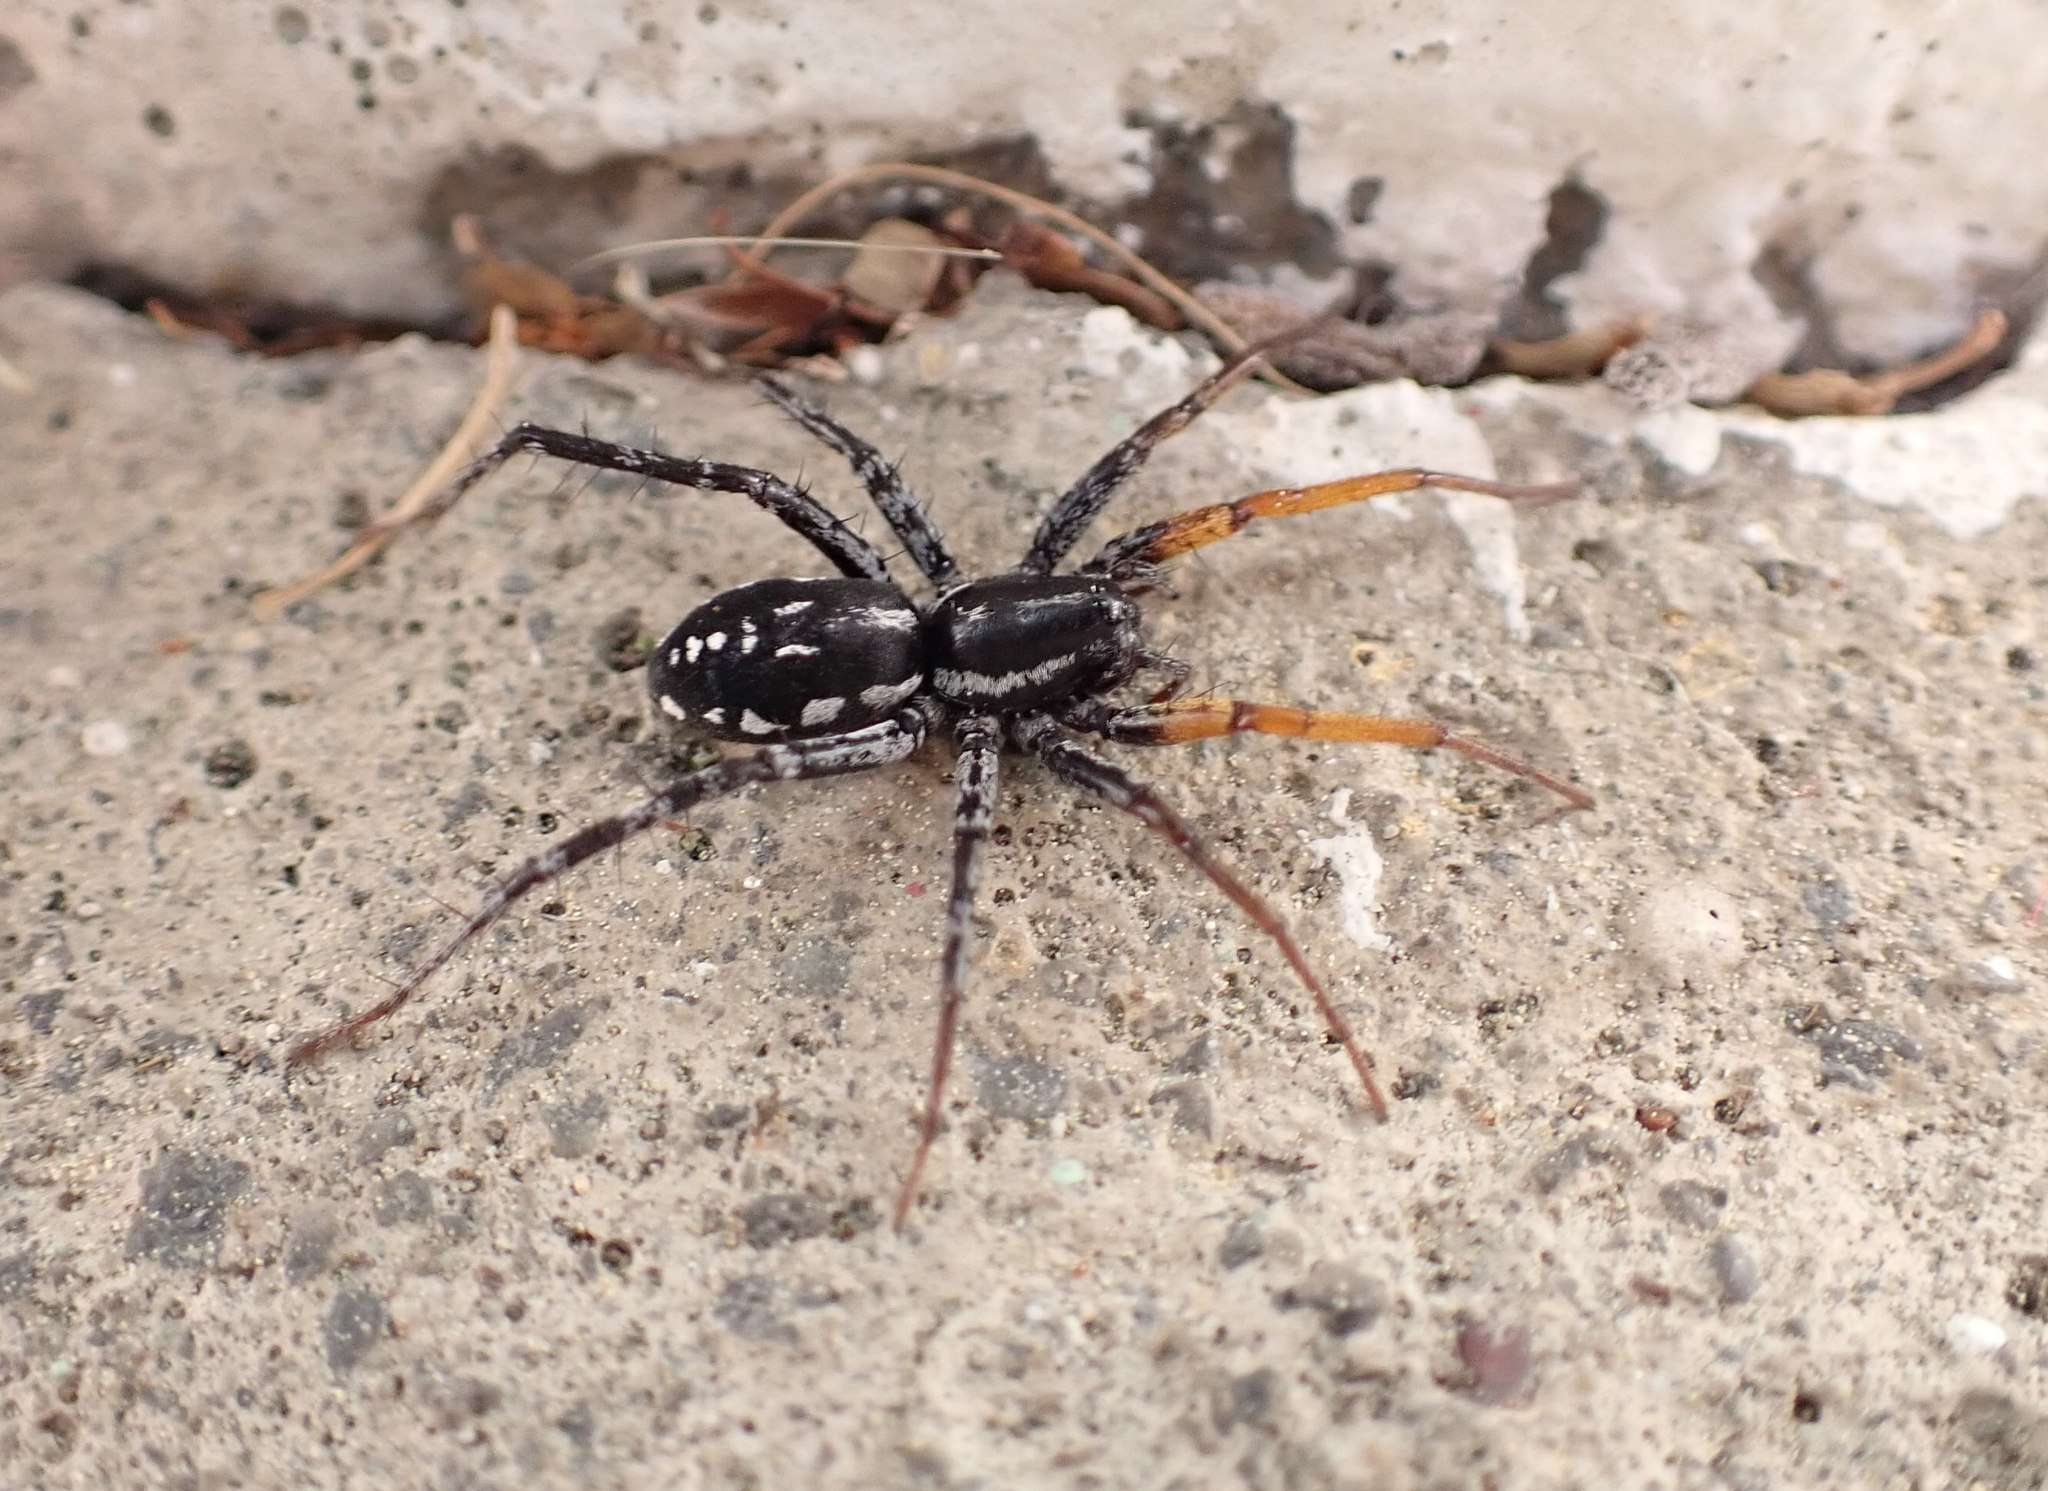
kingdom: Animalia
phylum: Arthropoda
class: Arachnida
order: Araneae
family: Corinnidae
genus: Nyssus
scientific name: Nyssus coloripes
